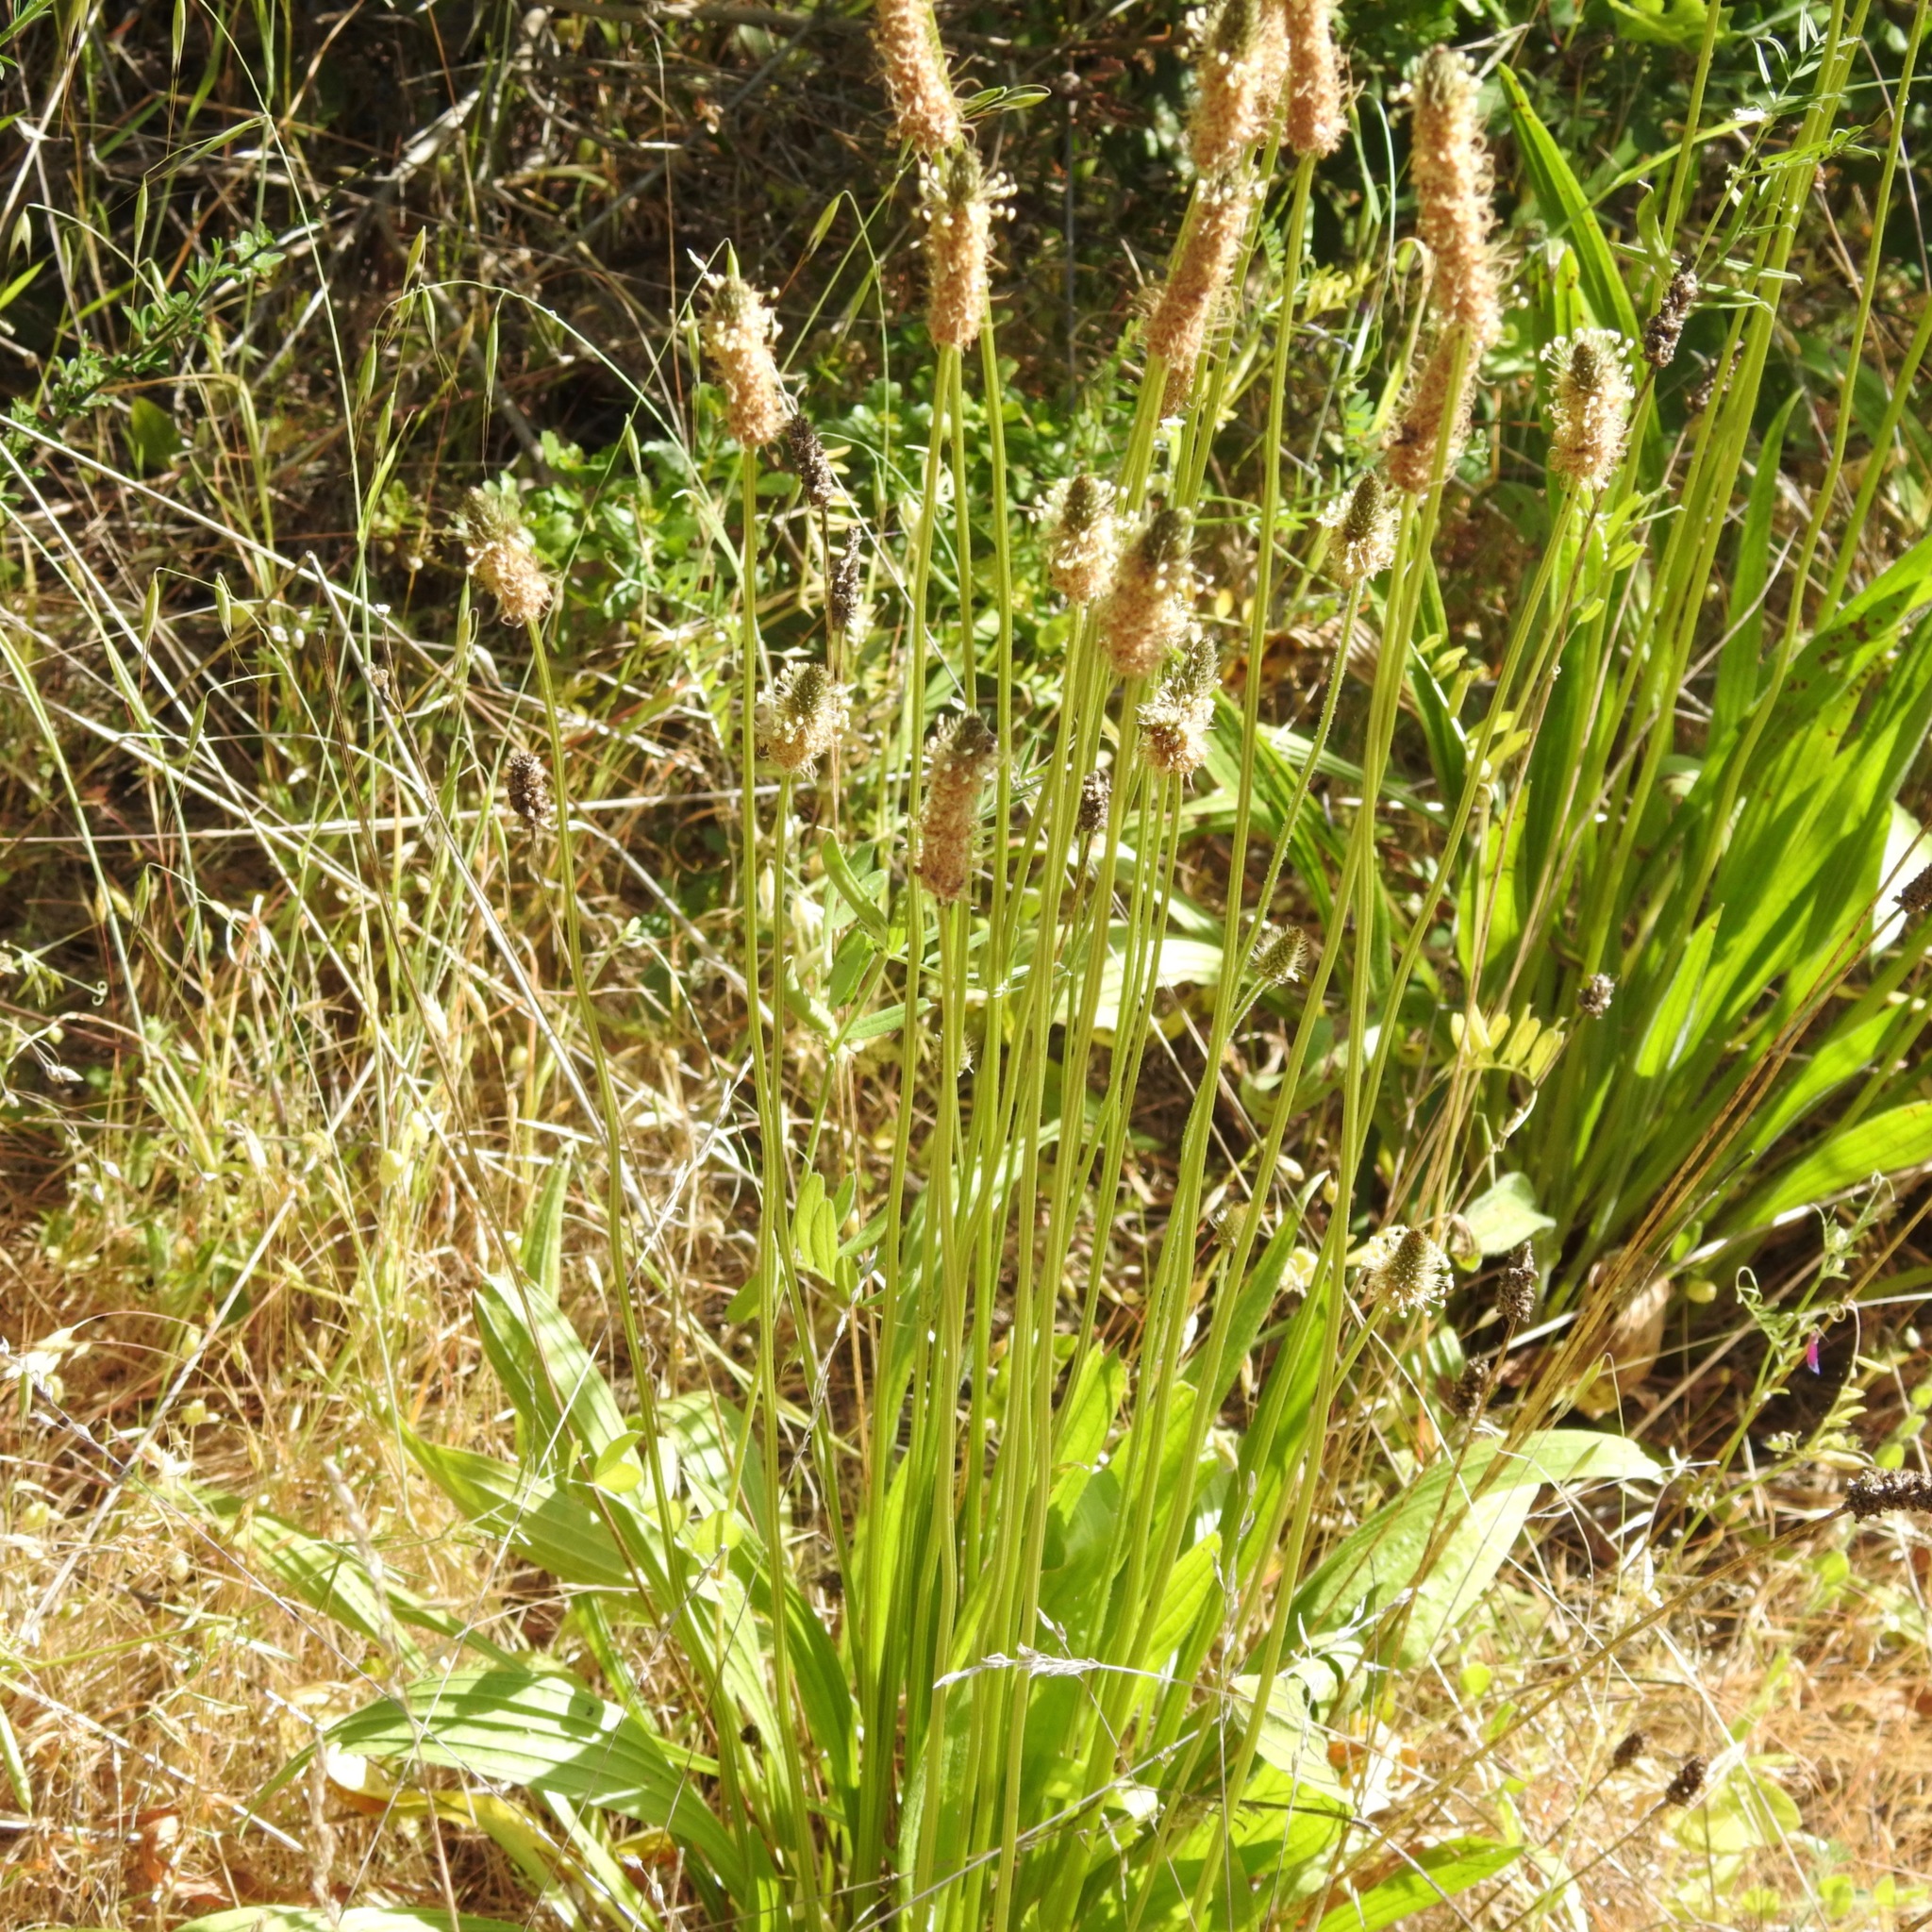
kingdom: Plantae
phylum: Tracheophyta
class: Magnoliopsida
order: Lamiales
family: Plantaginaceae
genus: Plantago
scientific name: Plantago lanceolata
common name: Ribwort plantain
